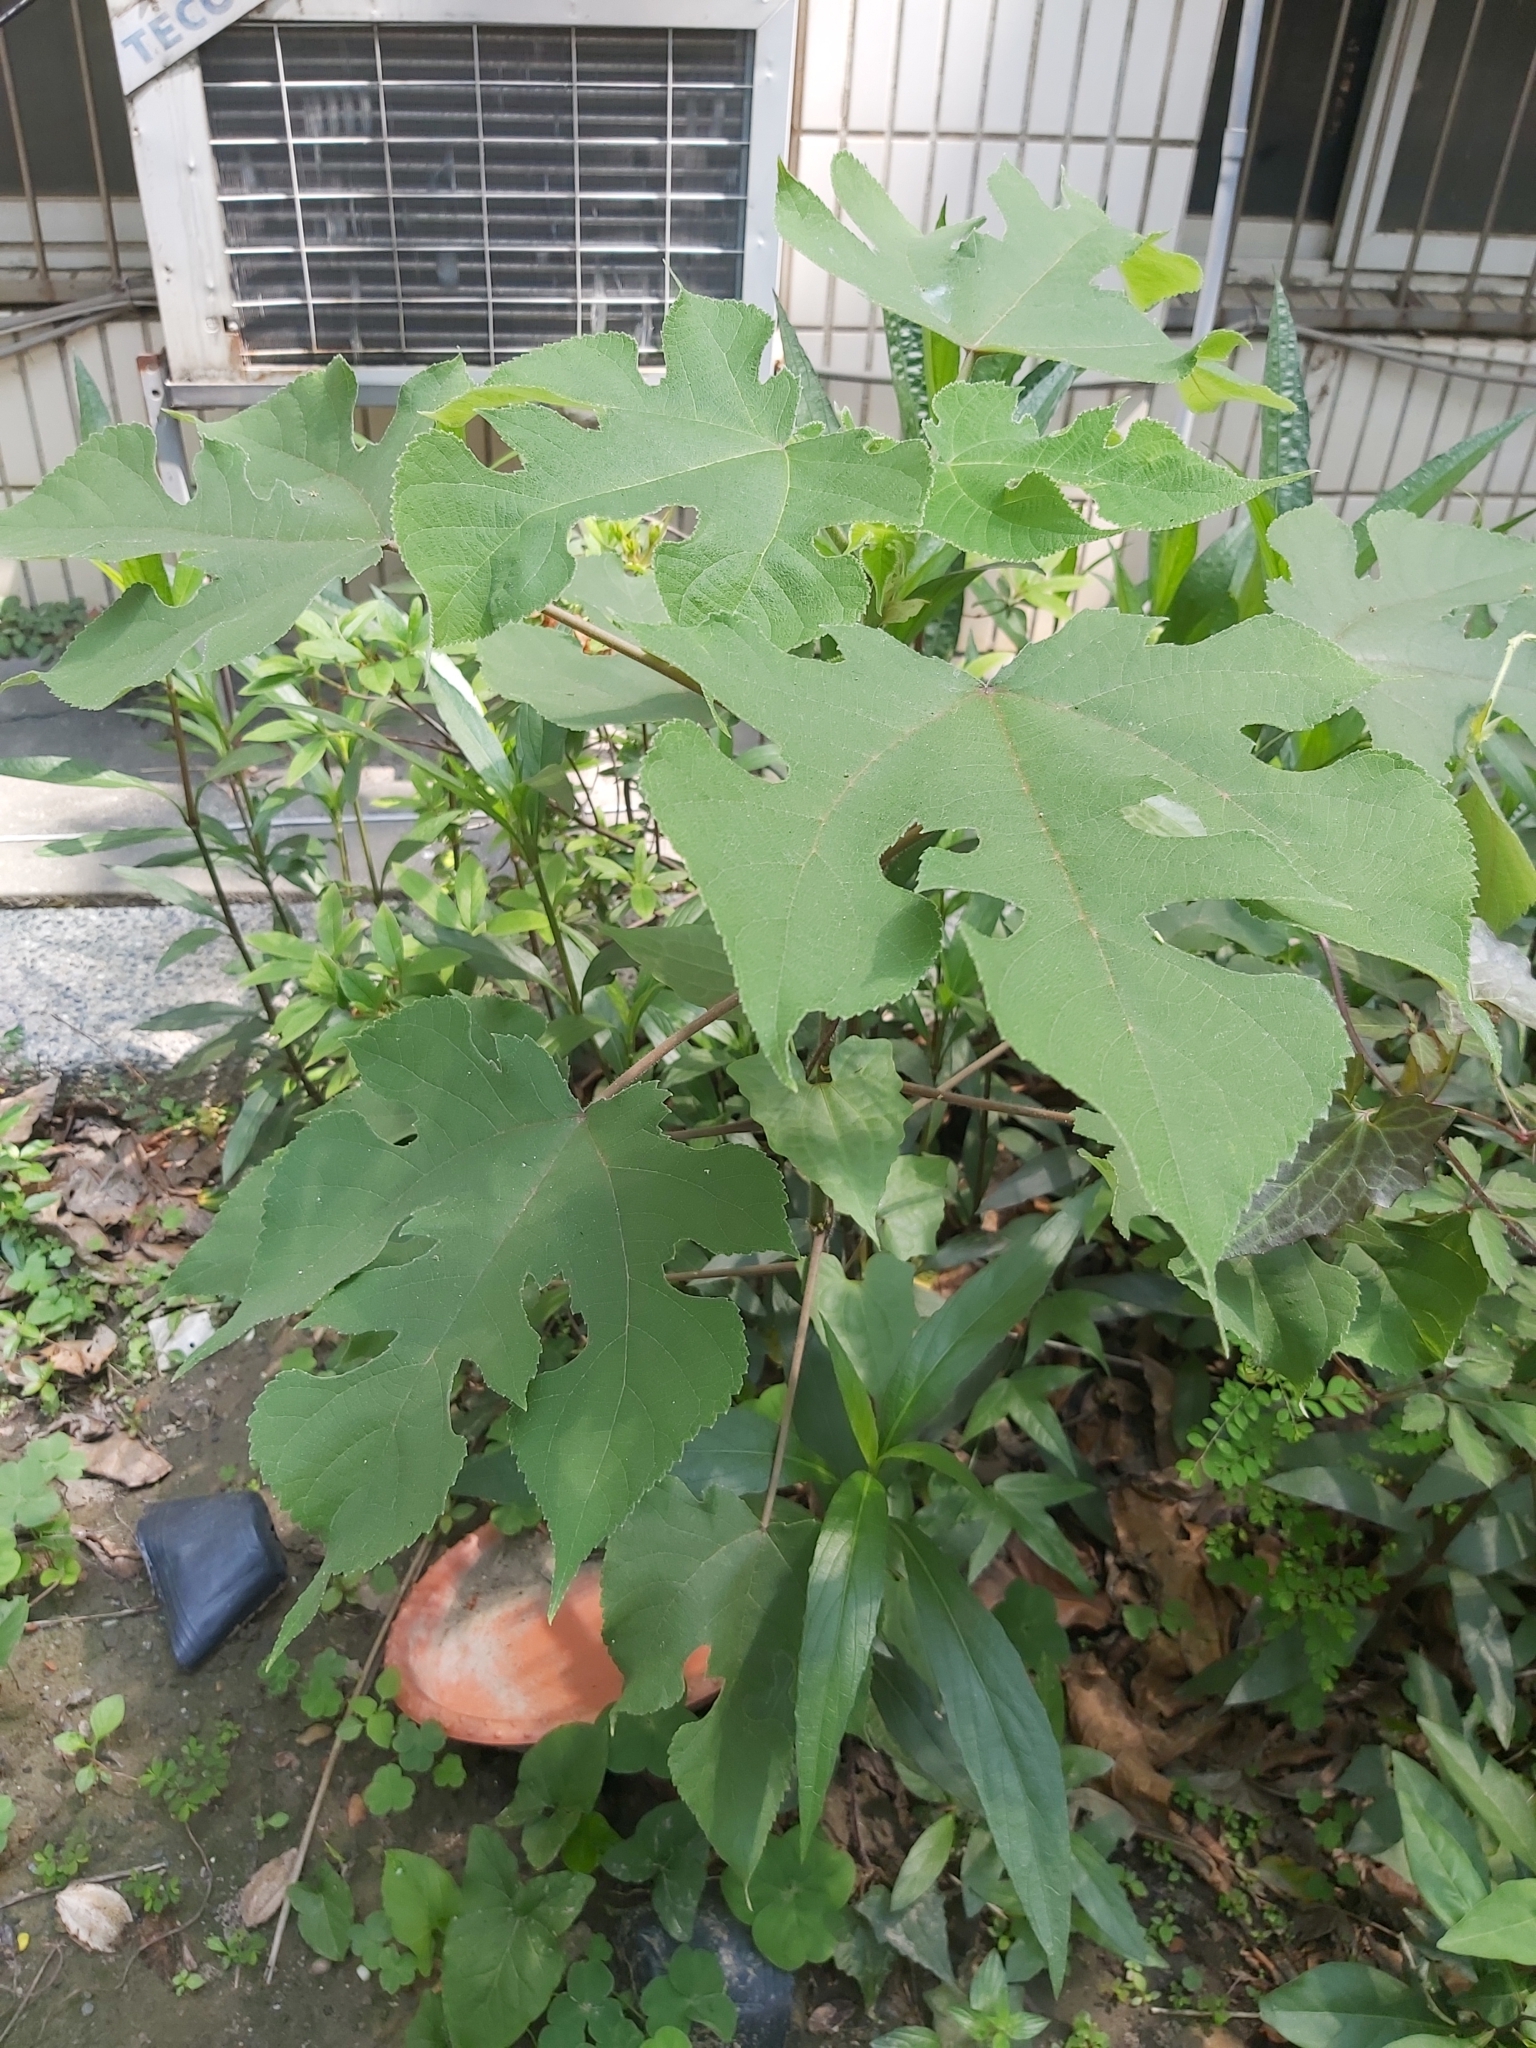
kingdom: Plantae
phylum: Tracheophyta
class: Magnoliopsida
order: Rosales
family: Moraceae
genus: Broussonetia
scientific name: Broussonetia papyrifera
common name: Paper mulberry
